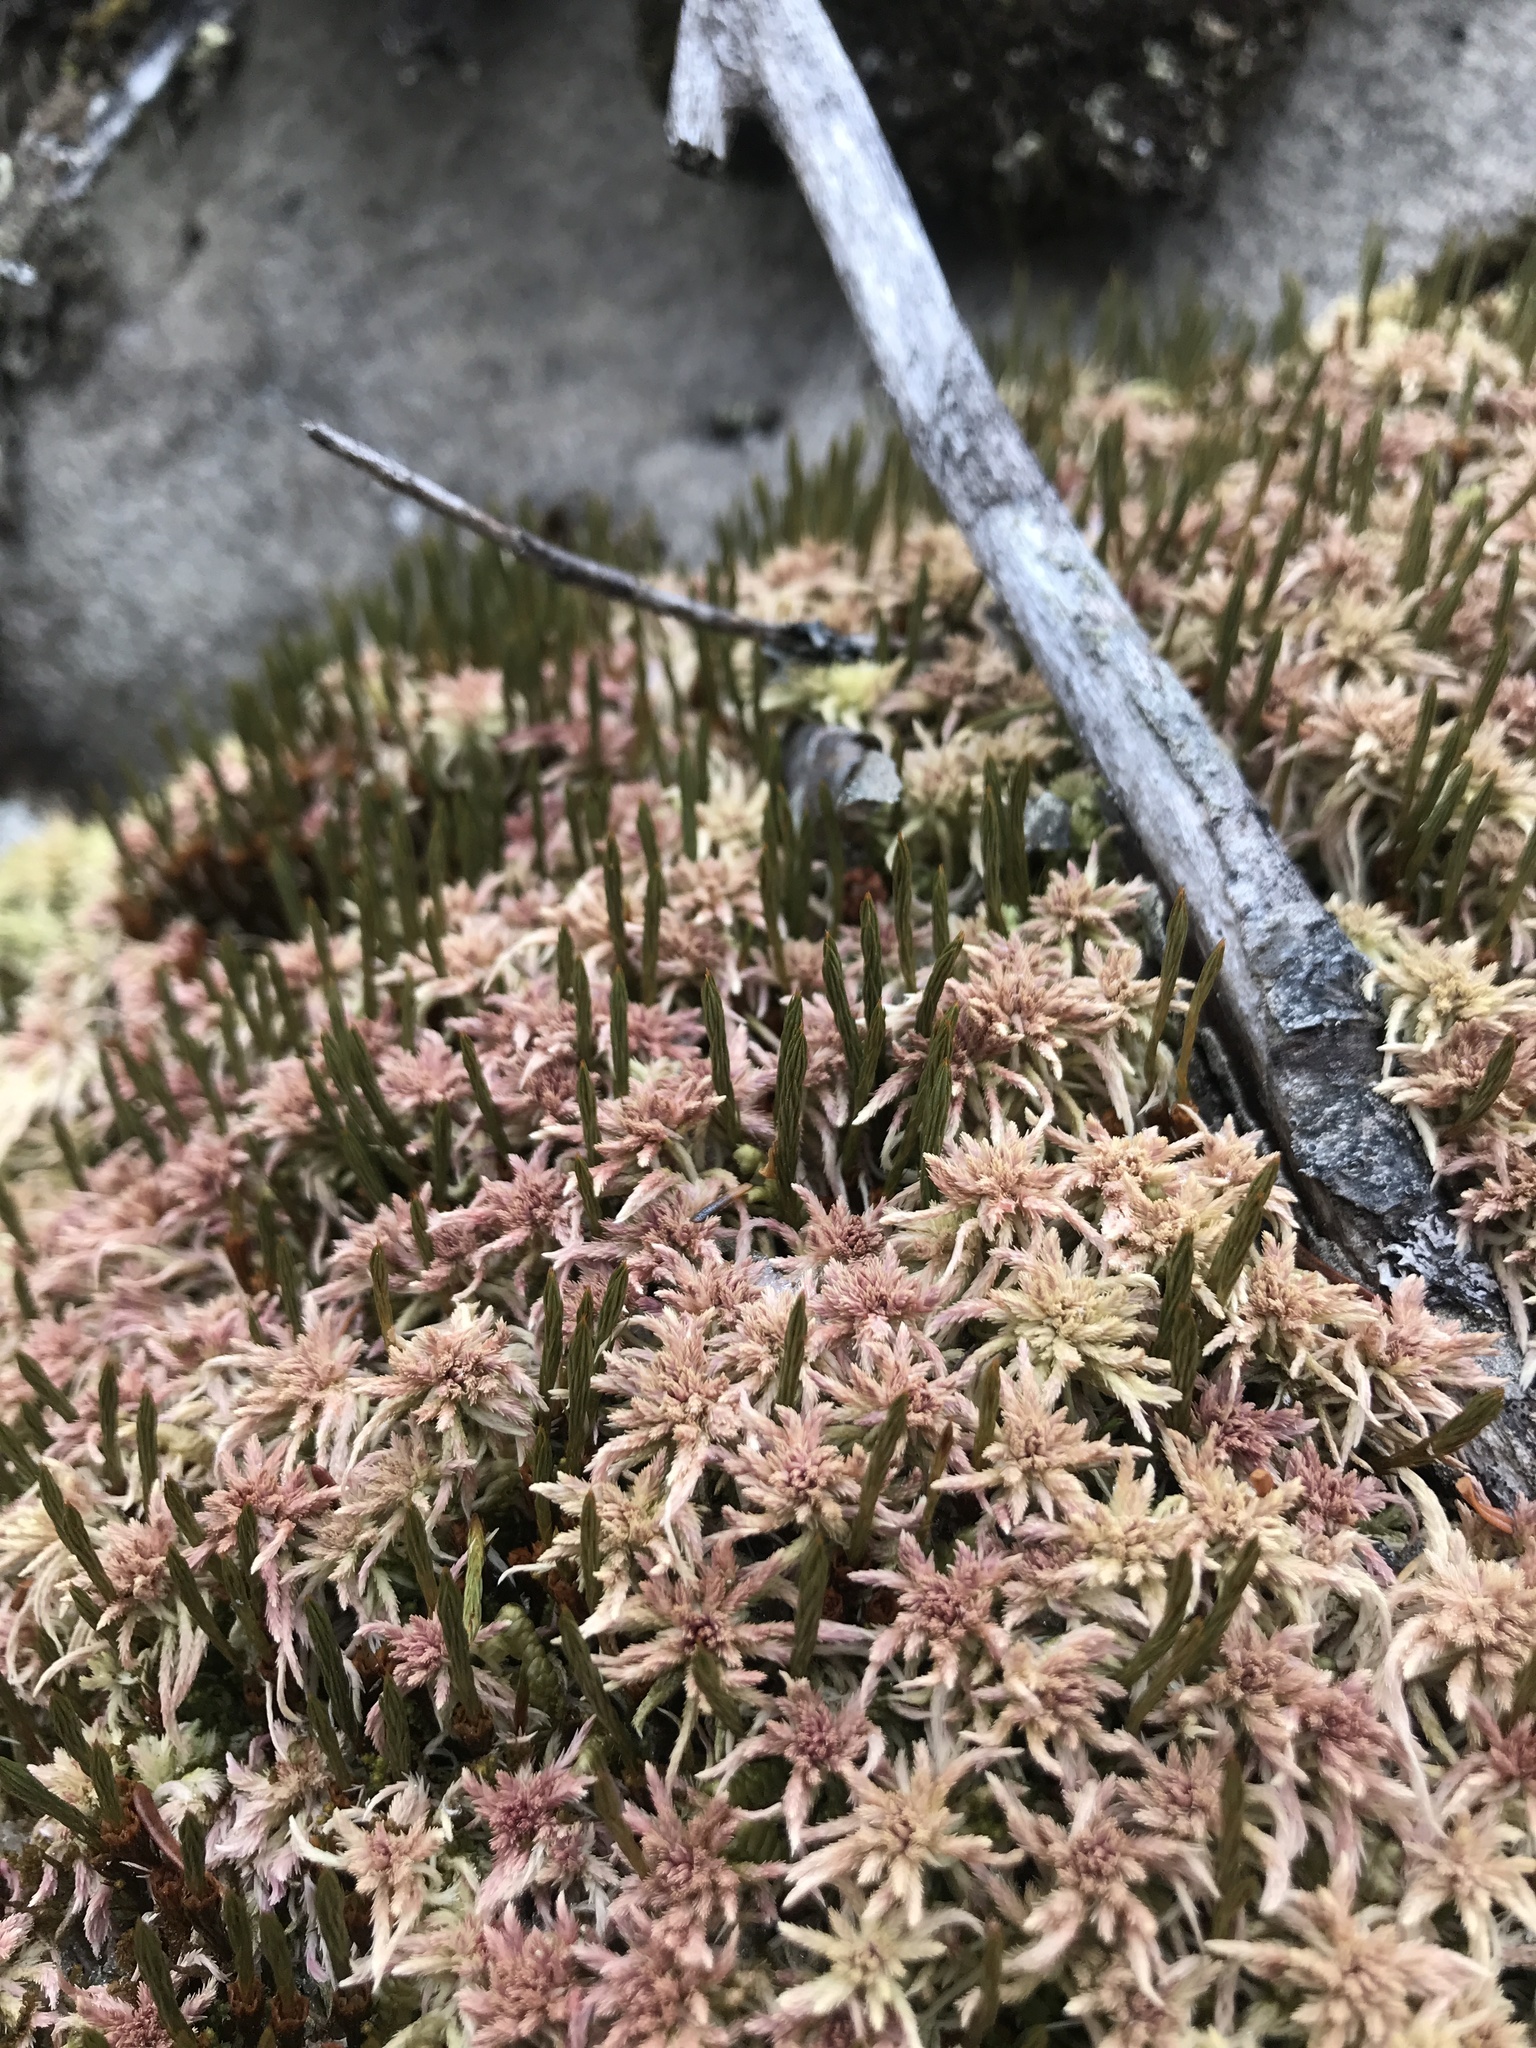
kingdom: Plantae
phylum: Bryophyta
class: Polytrichopsida
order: Polytrichales
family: Polytrichaceae
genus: Polytrichum
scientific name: Polytrichum strictum
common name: Bog haircap moss
